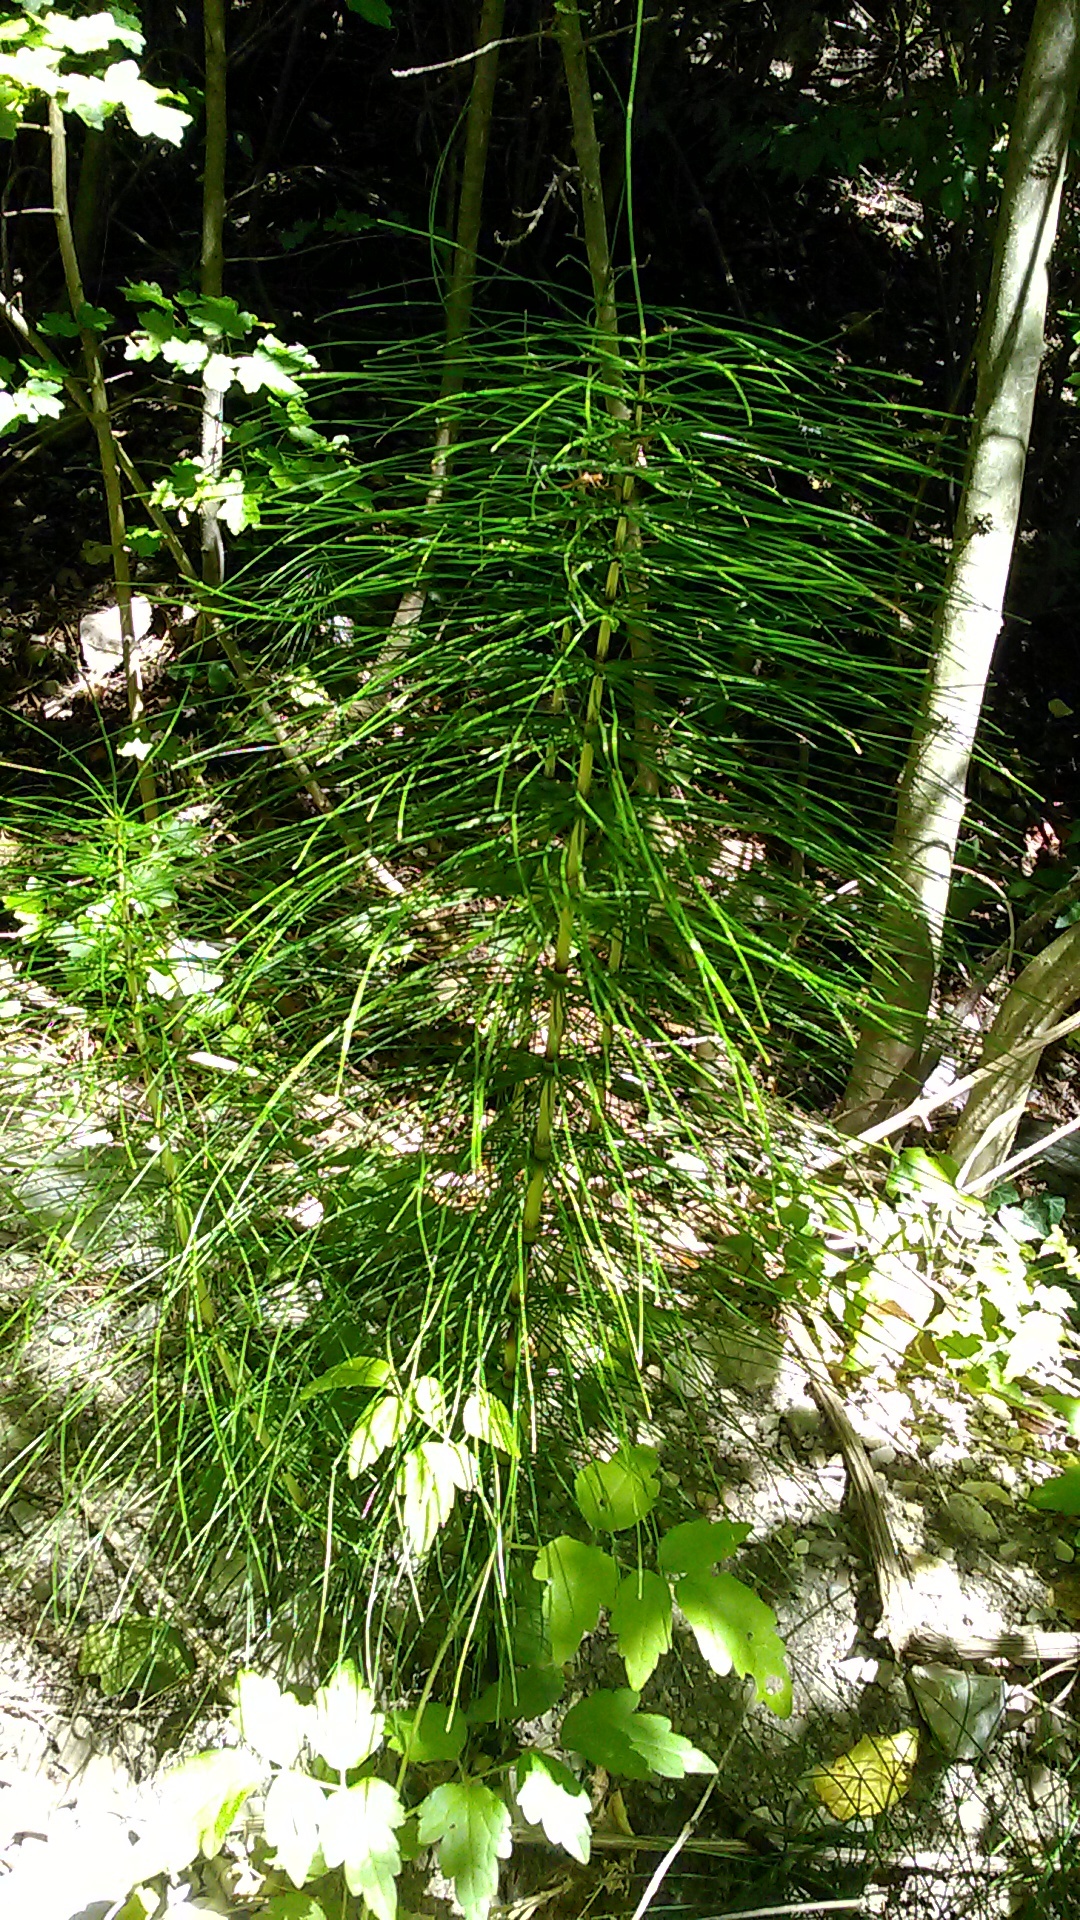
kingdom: Plantae
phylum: Tracheophyta
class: Polypodiopsida
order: Equisetales
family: Equisetaceae
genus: Equisetum
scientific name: Equisetum telmateia
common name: Great horsetail
